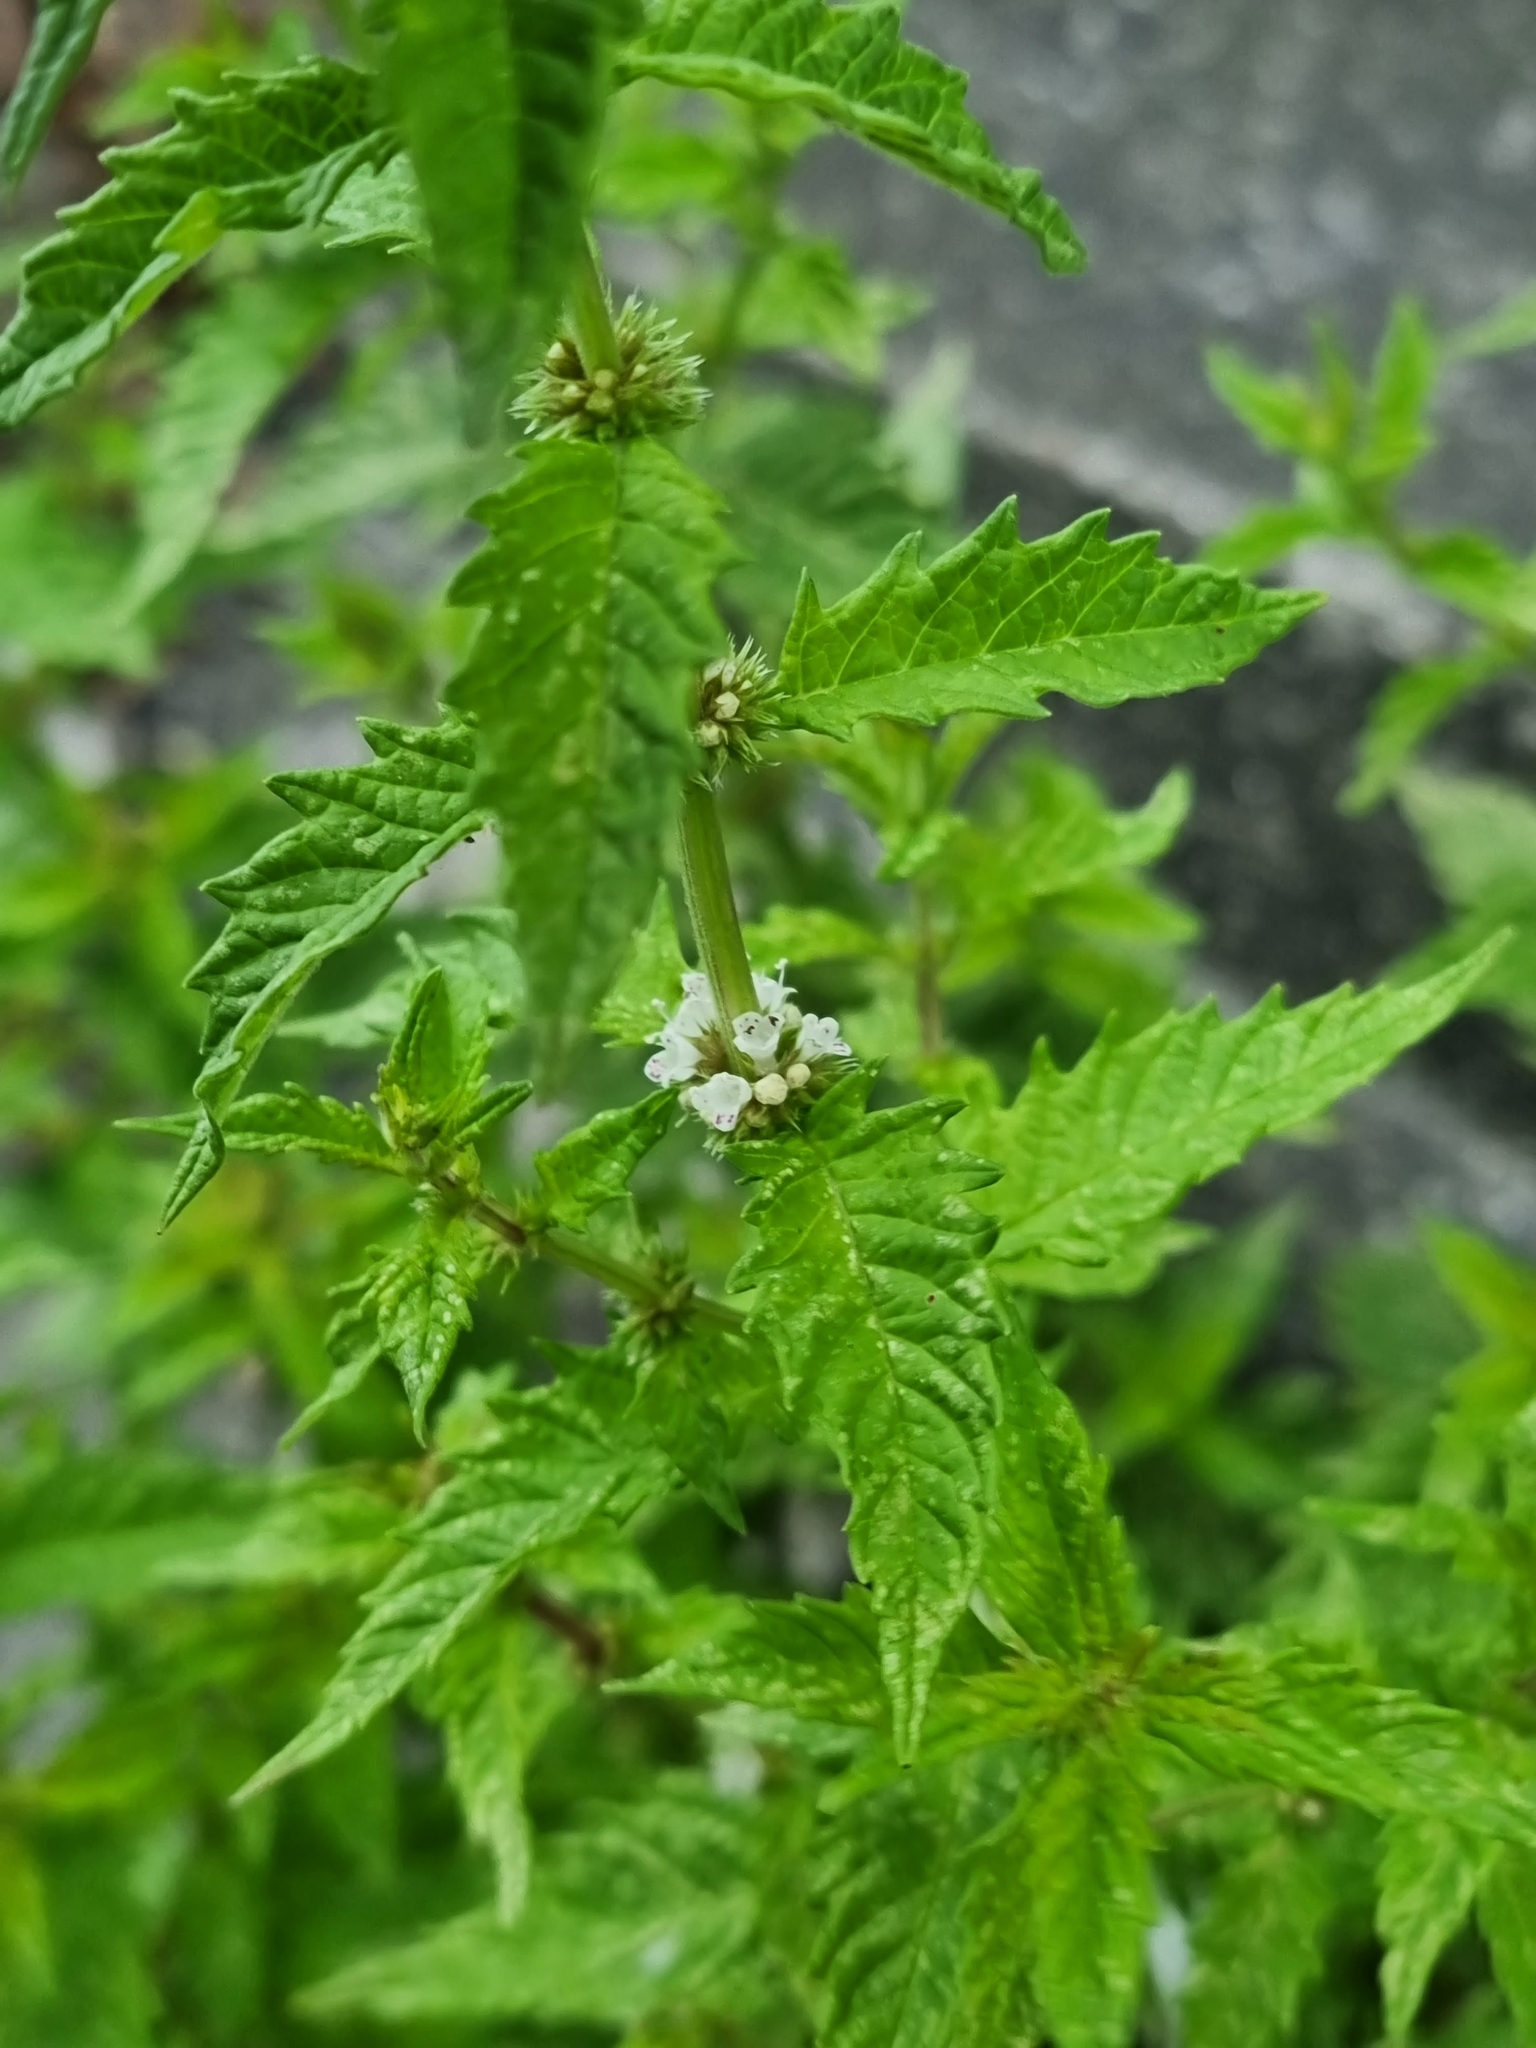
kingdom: Plantae
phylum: Tracheophyta
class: Magnoliopsida
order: Lamiales
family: Lamiaceae
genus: Lycopus
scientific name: Lycopus europaeus
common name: European bugleweed
